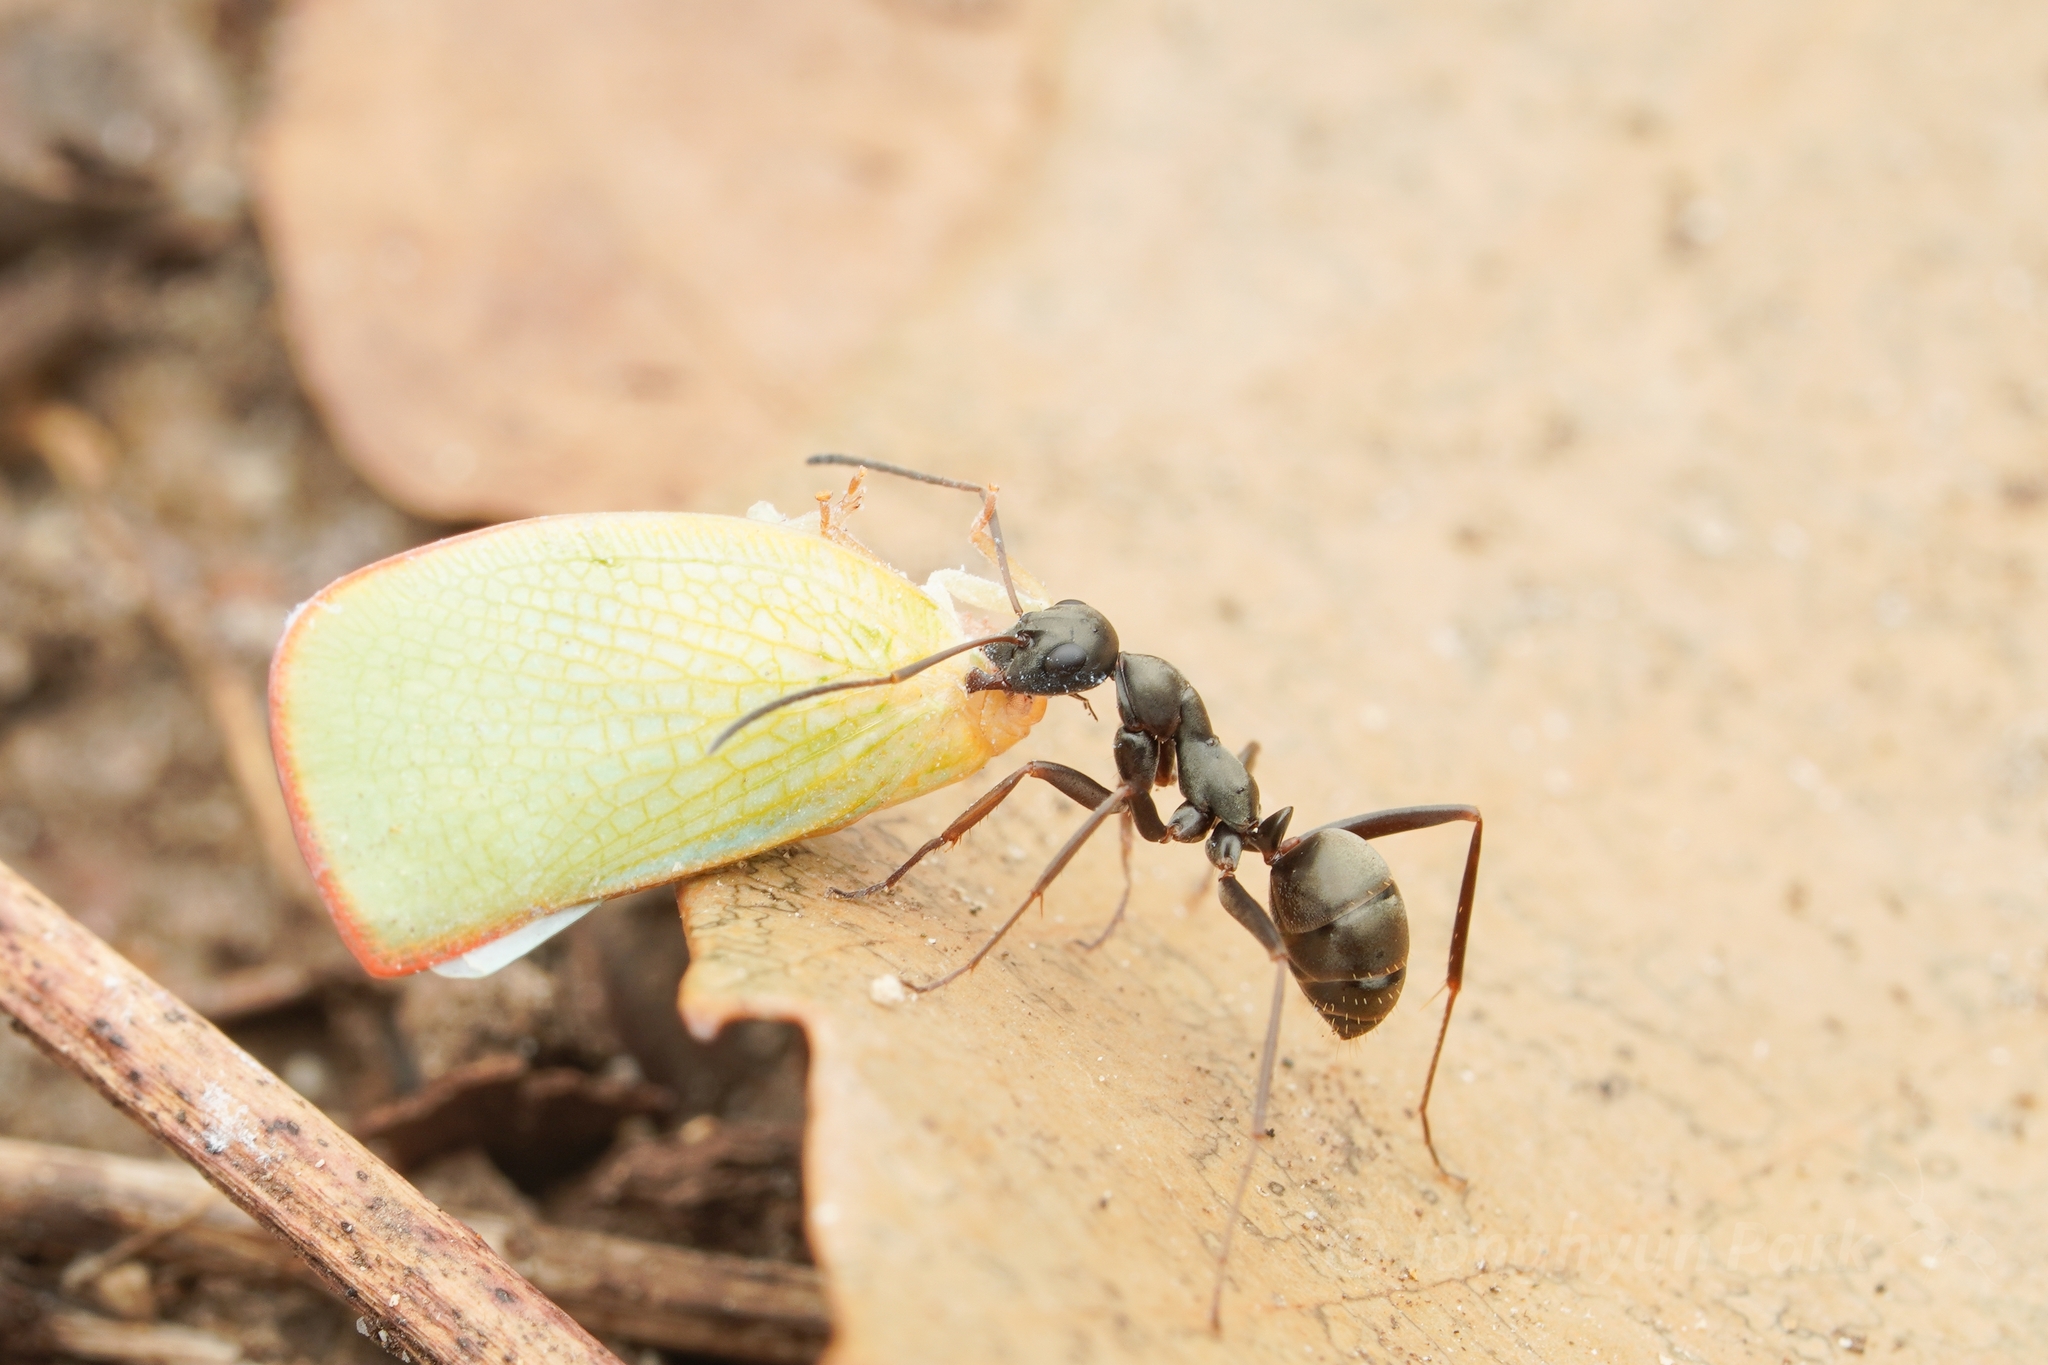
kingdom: Animalia
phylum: Arthropoda
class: Insecta
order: Hymenoptera
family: Formicidae
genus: Formica
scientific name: Formica hayashi
